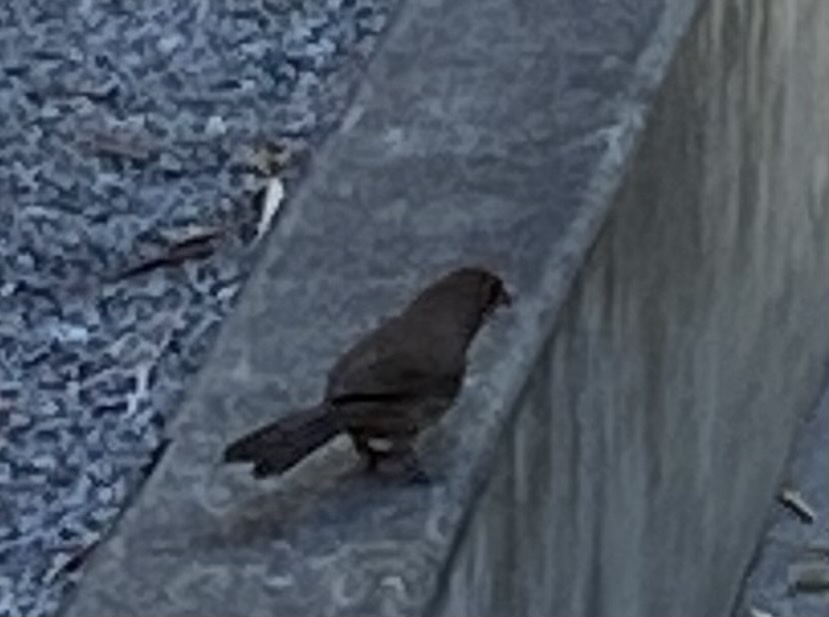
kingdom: Animalia
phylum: Chordata
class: Aves
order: Passeriformes
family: Passerellidae
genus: Melozone
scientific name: Melozone crissalis
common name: California towhee
